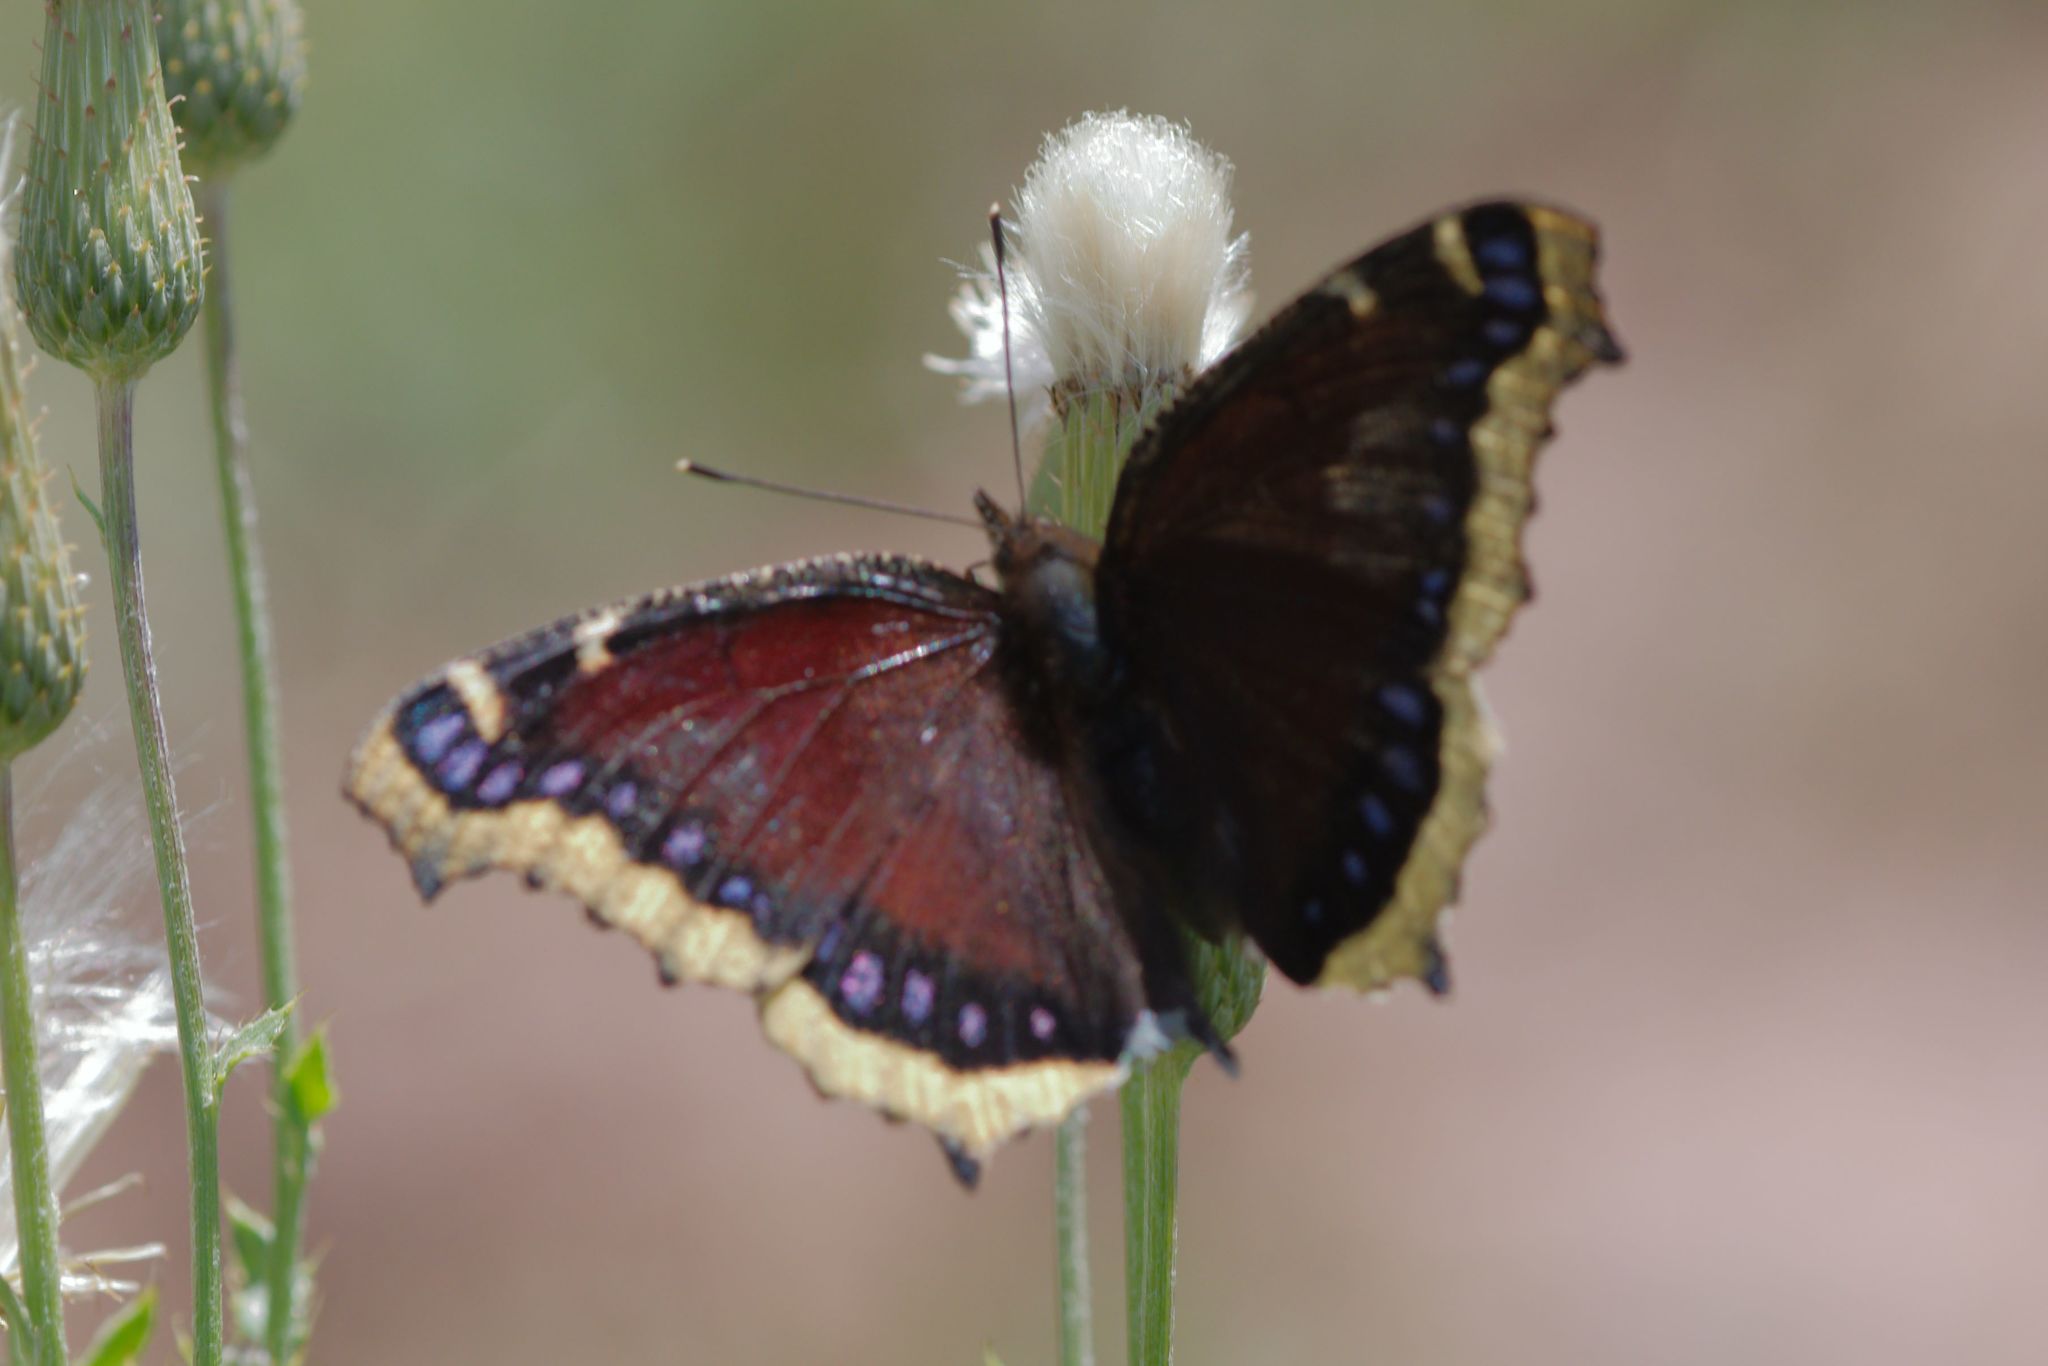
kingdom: Animalia
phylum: Arthropoda
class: Insecta
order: Lepidoptera
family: Nymphalidae
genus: Nymphalis
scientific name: Nymphalis antiopa
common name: Camberwell beauty
